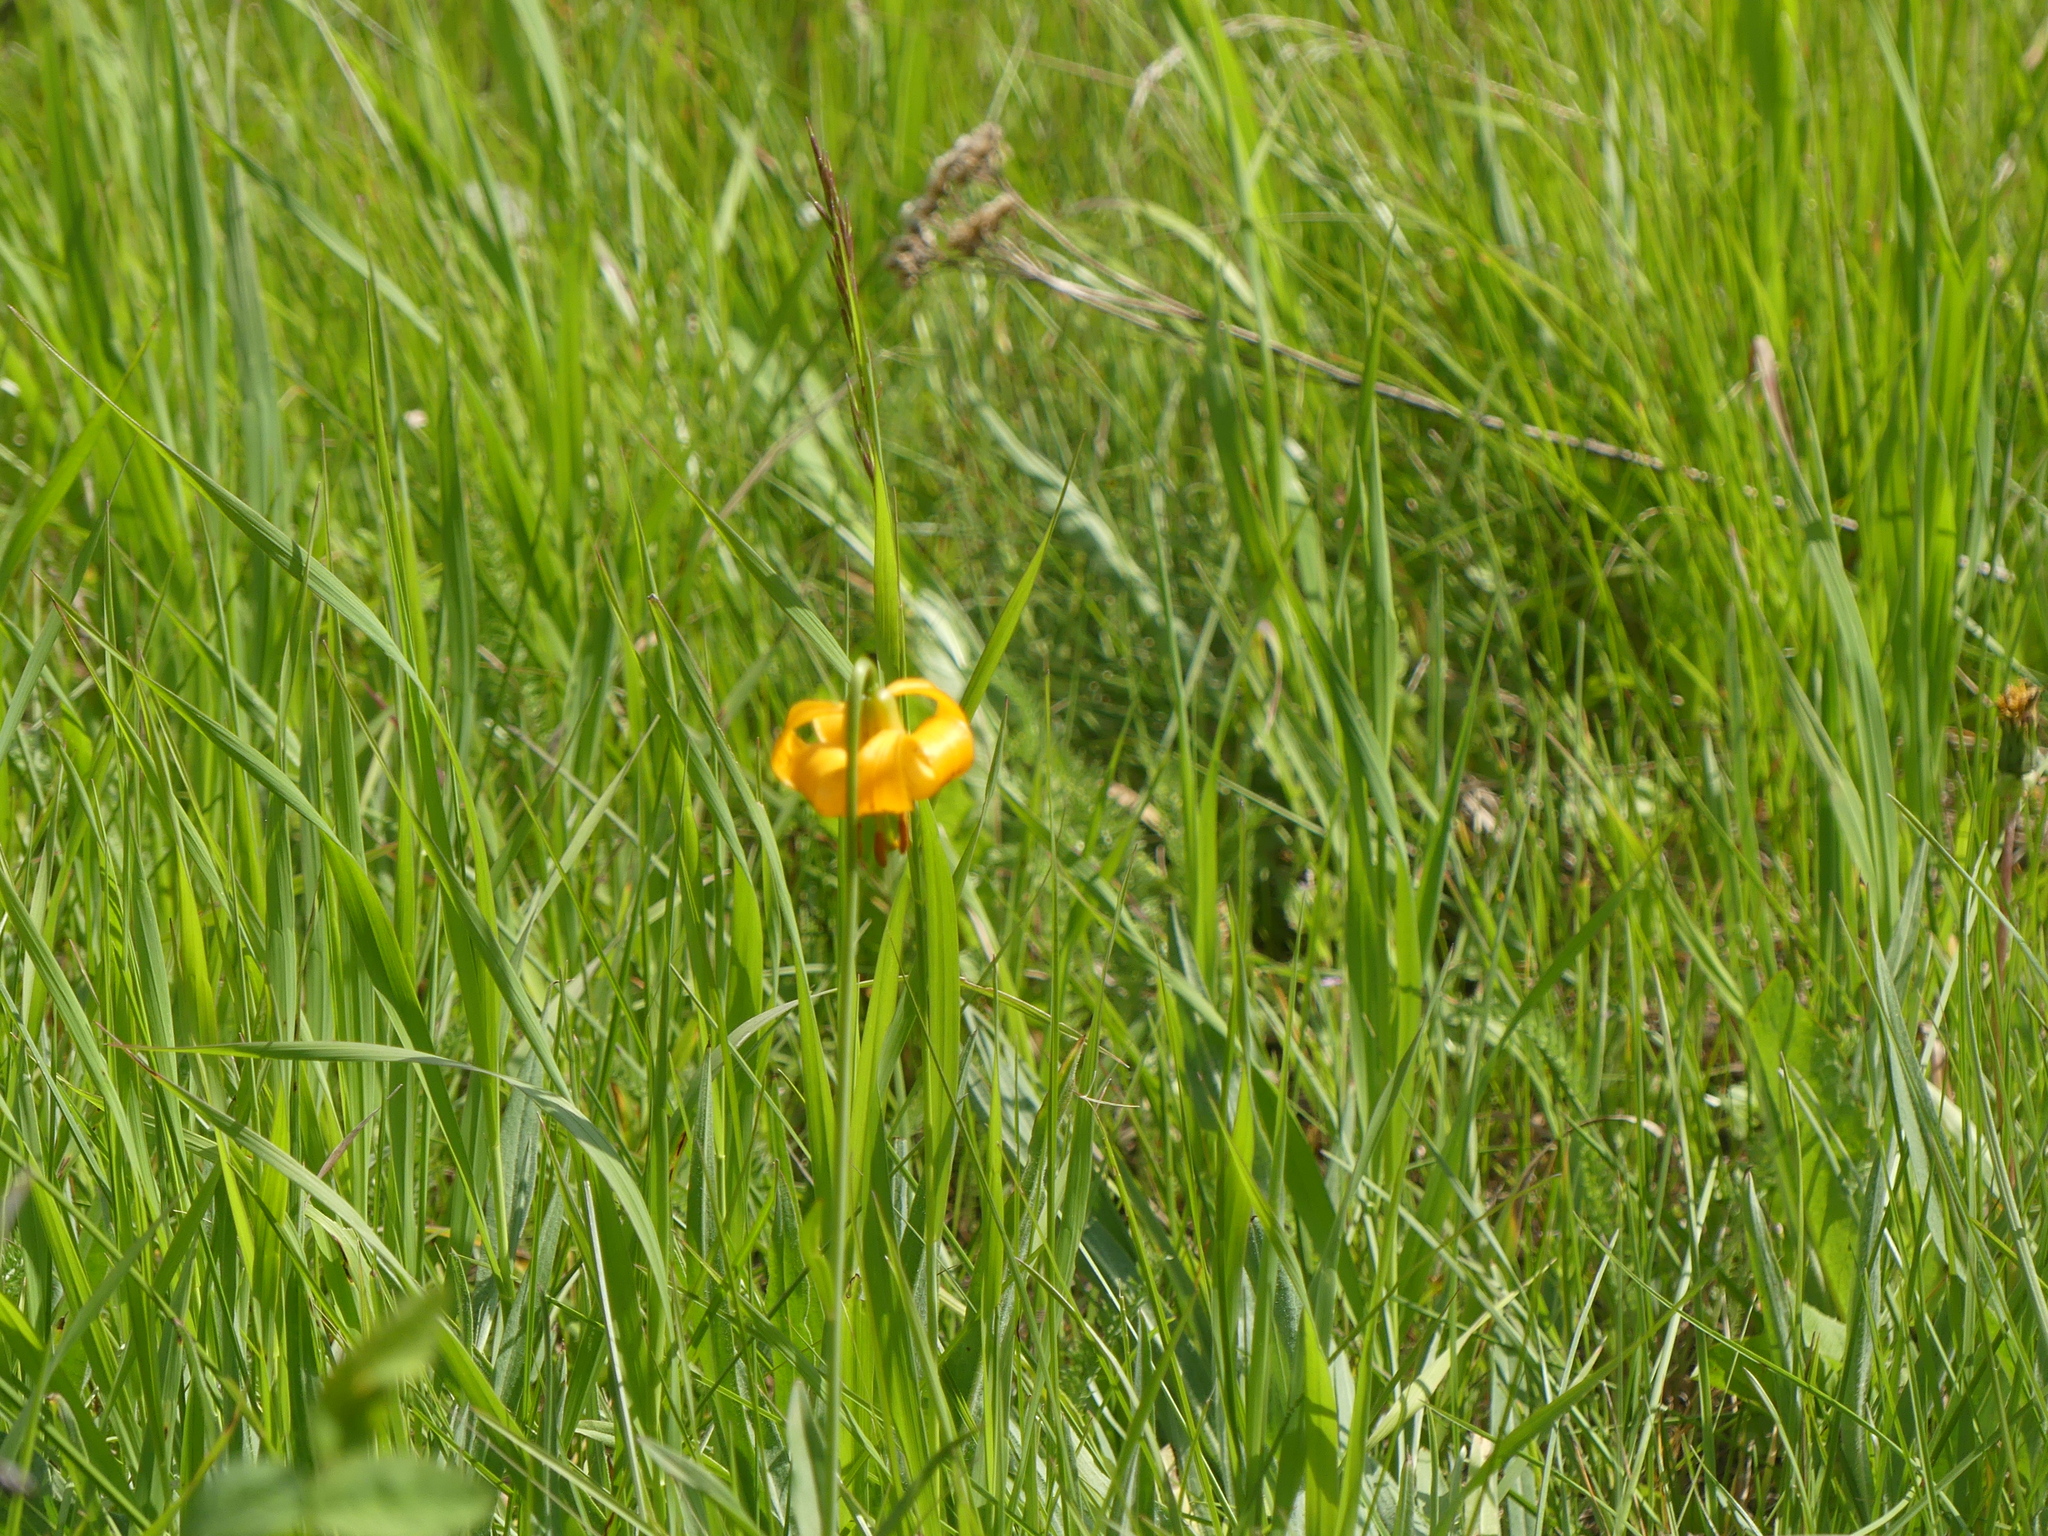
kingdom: Plantae
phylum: Tracheophyta
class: Liliopsida
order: Liliales
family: Liliaceae
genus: Lilium
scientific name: Lilium columbianum
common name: Columbia lily
